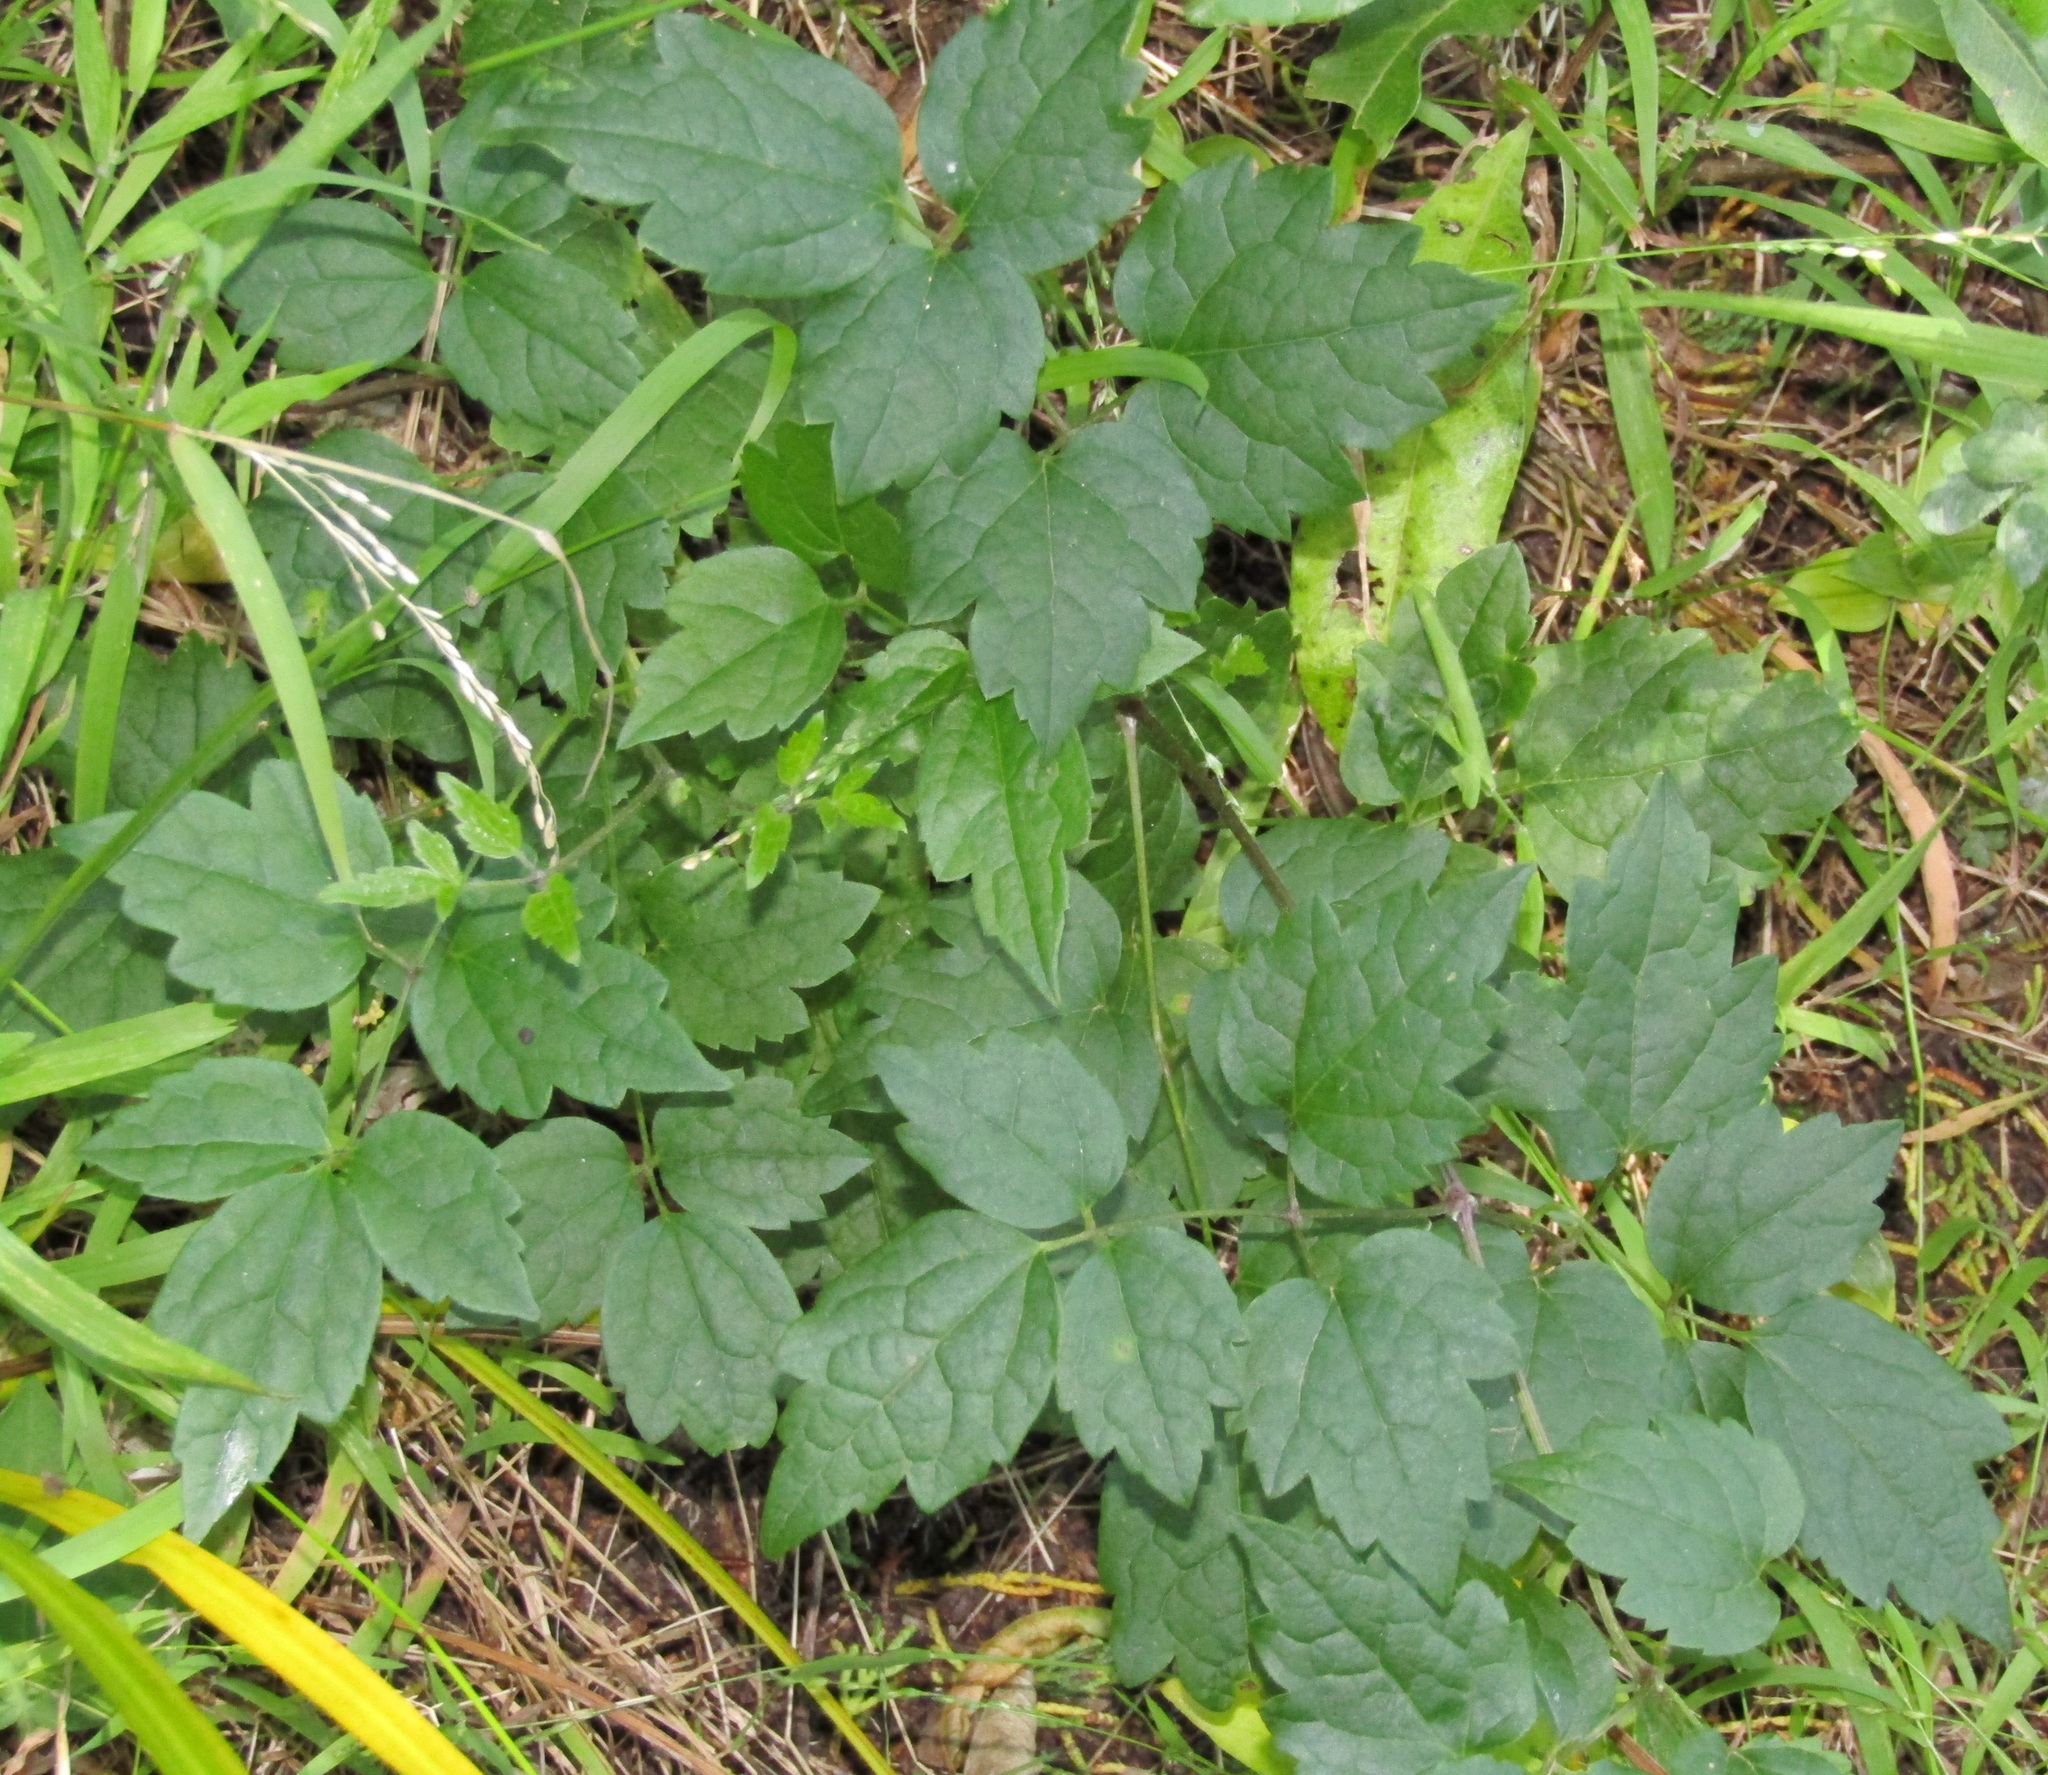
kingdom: Plantae
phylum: Tracheophyta
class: Magnoliopsida
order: Ranunculales
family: Ranunculaceae
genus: Clematis
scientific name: Clematis vitalba
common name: Evergreen clematis
